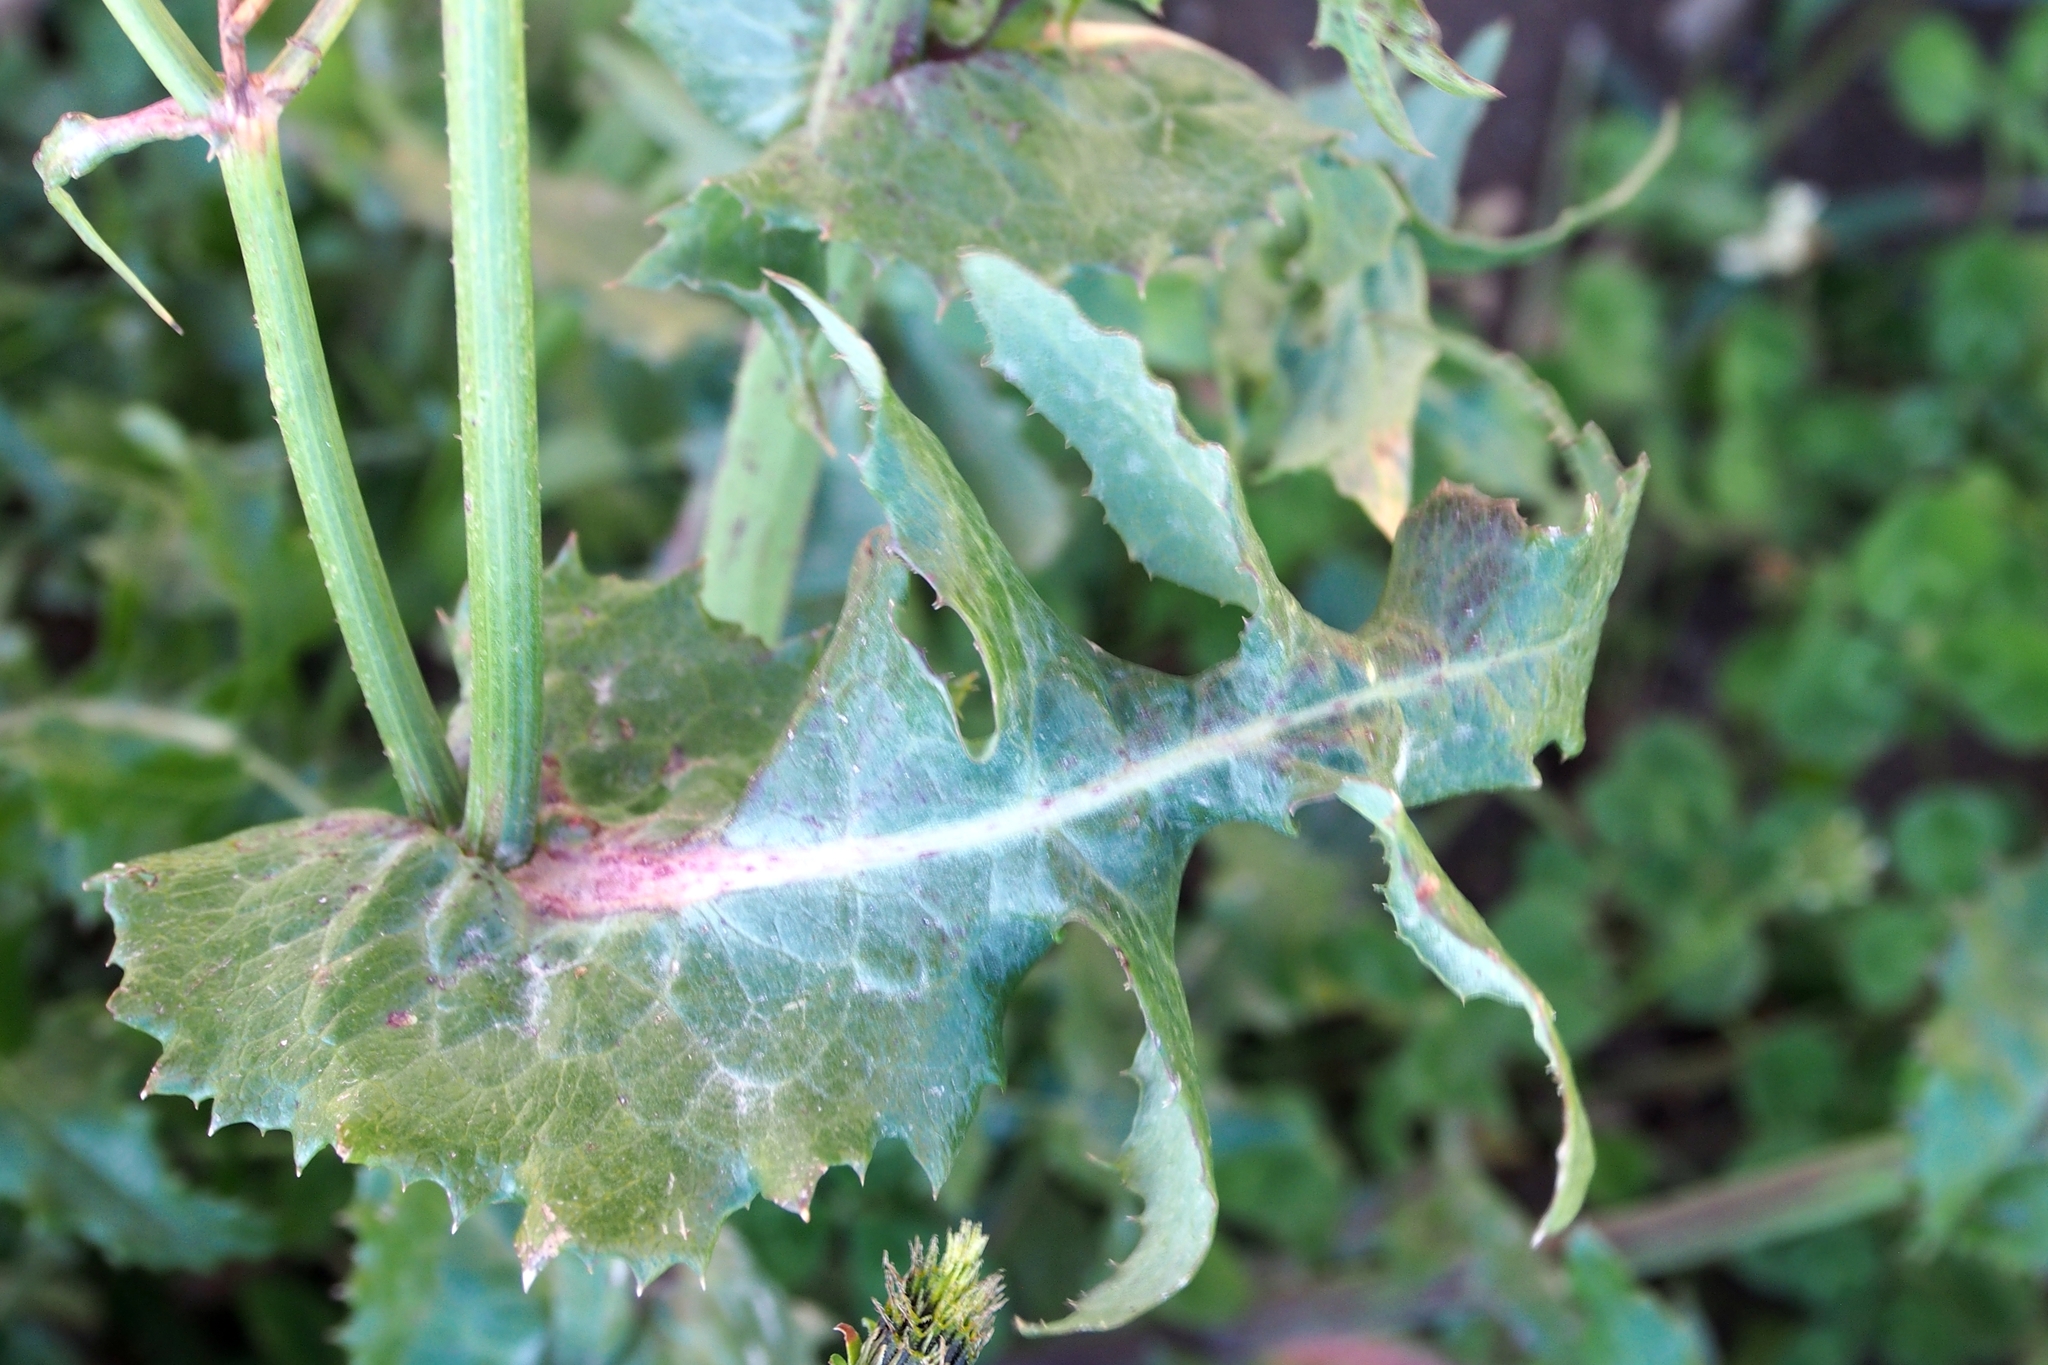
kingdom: Plantae
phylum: Tracheophyta
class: Magnoliopsida
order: Asterales
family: Asteraceae
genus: Sonchus
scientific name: Sonchus oleraceus
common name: Common sowthistle
